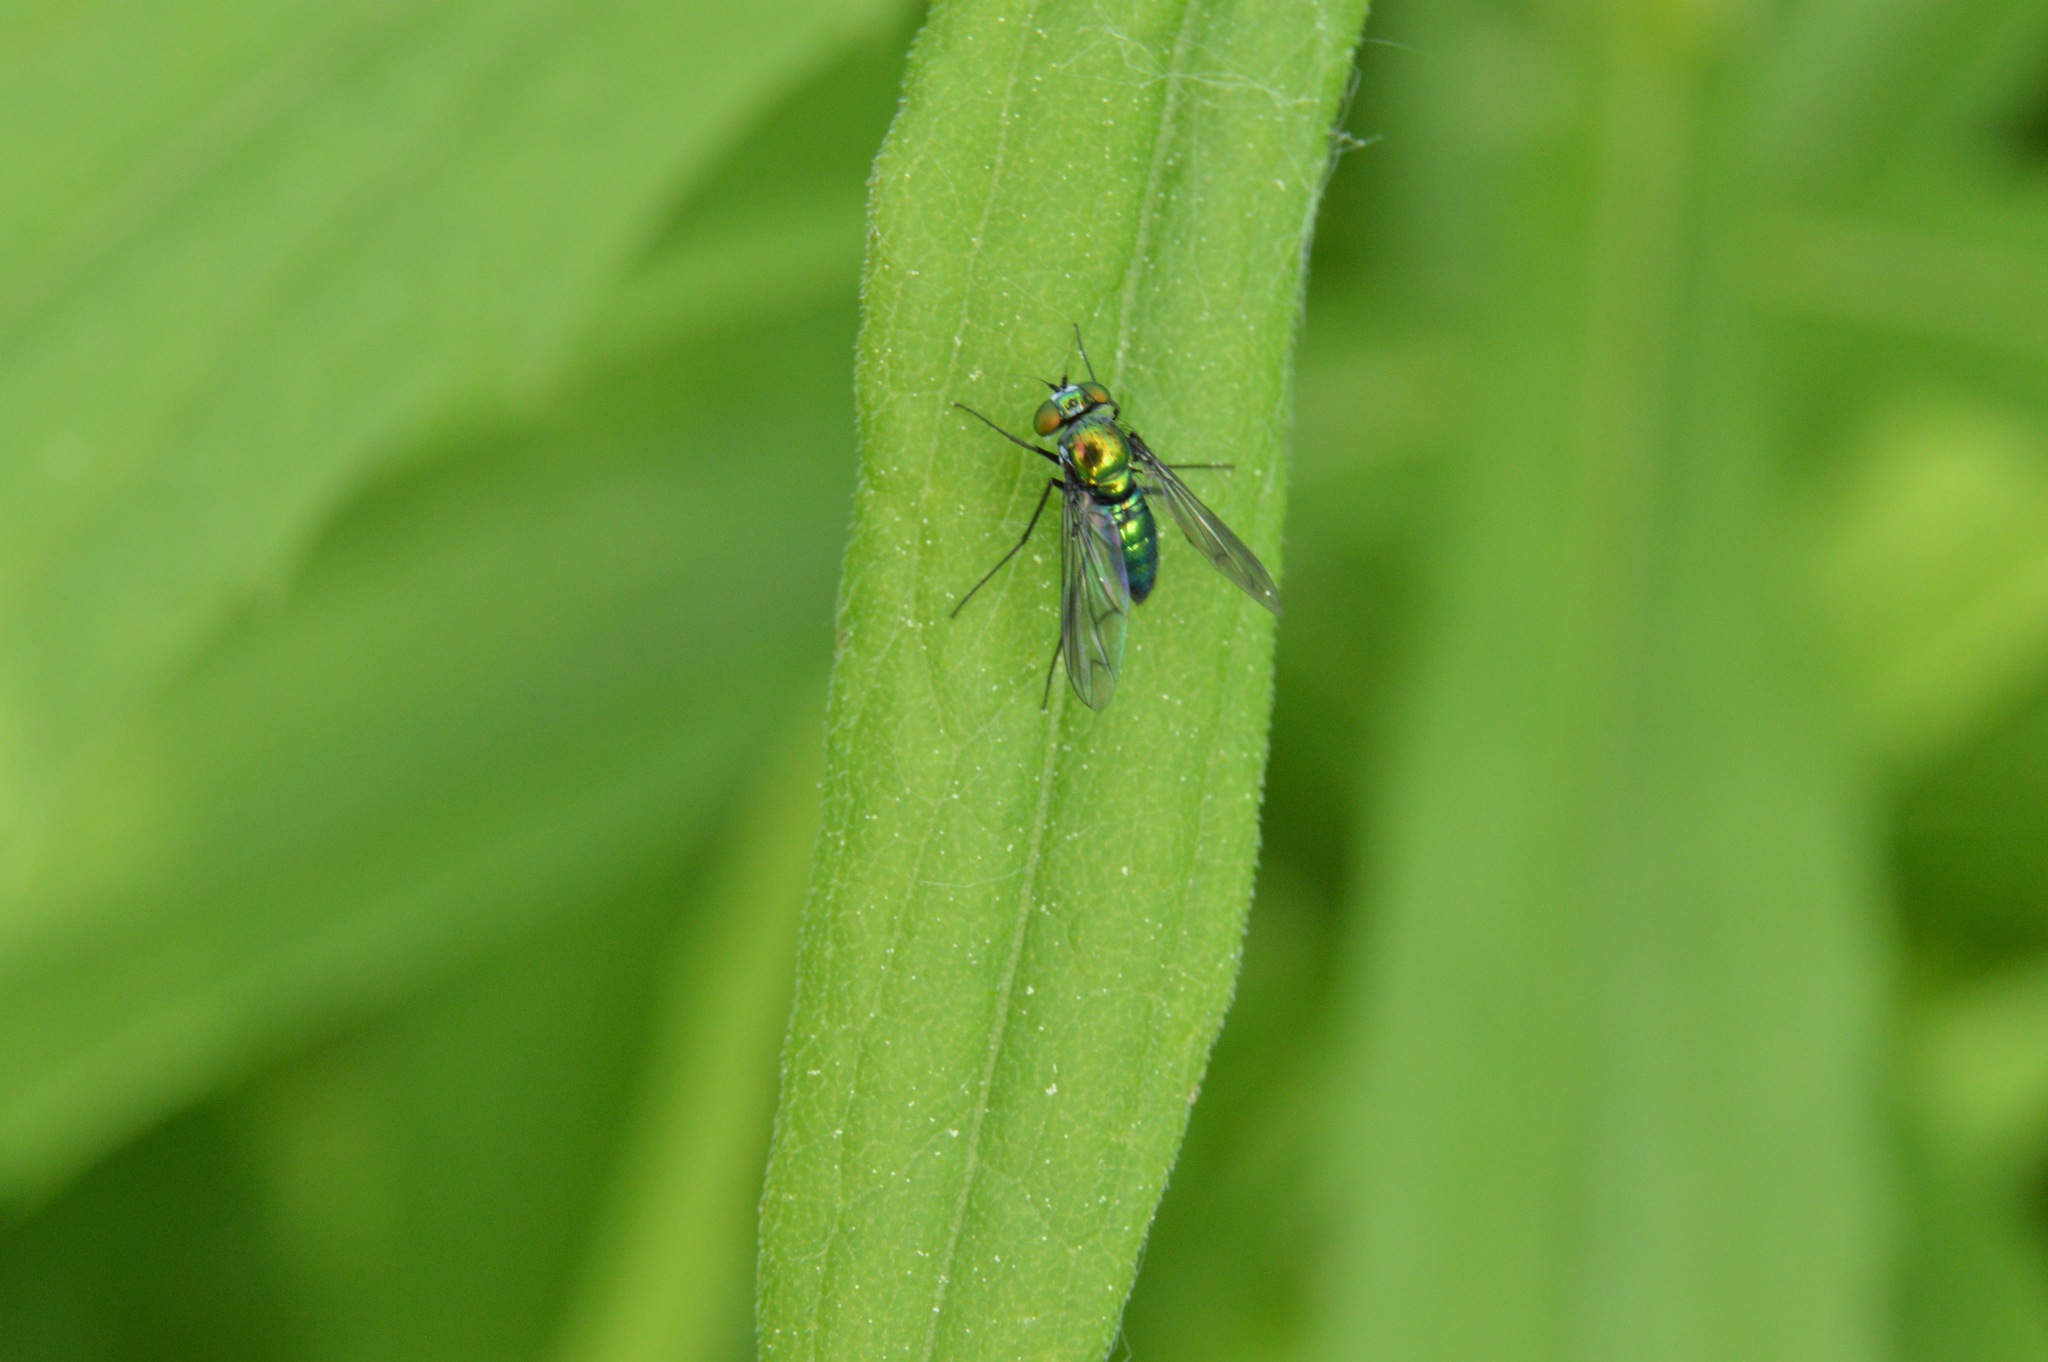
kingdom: Animalia
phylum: Arthropoda
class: Insecta
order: Diptera
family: Dolichopodidae
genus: Condylostylus
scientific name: Condylostylus patibulatus
